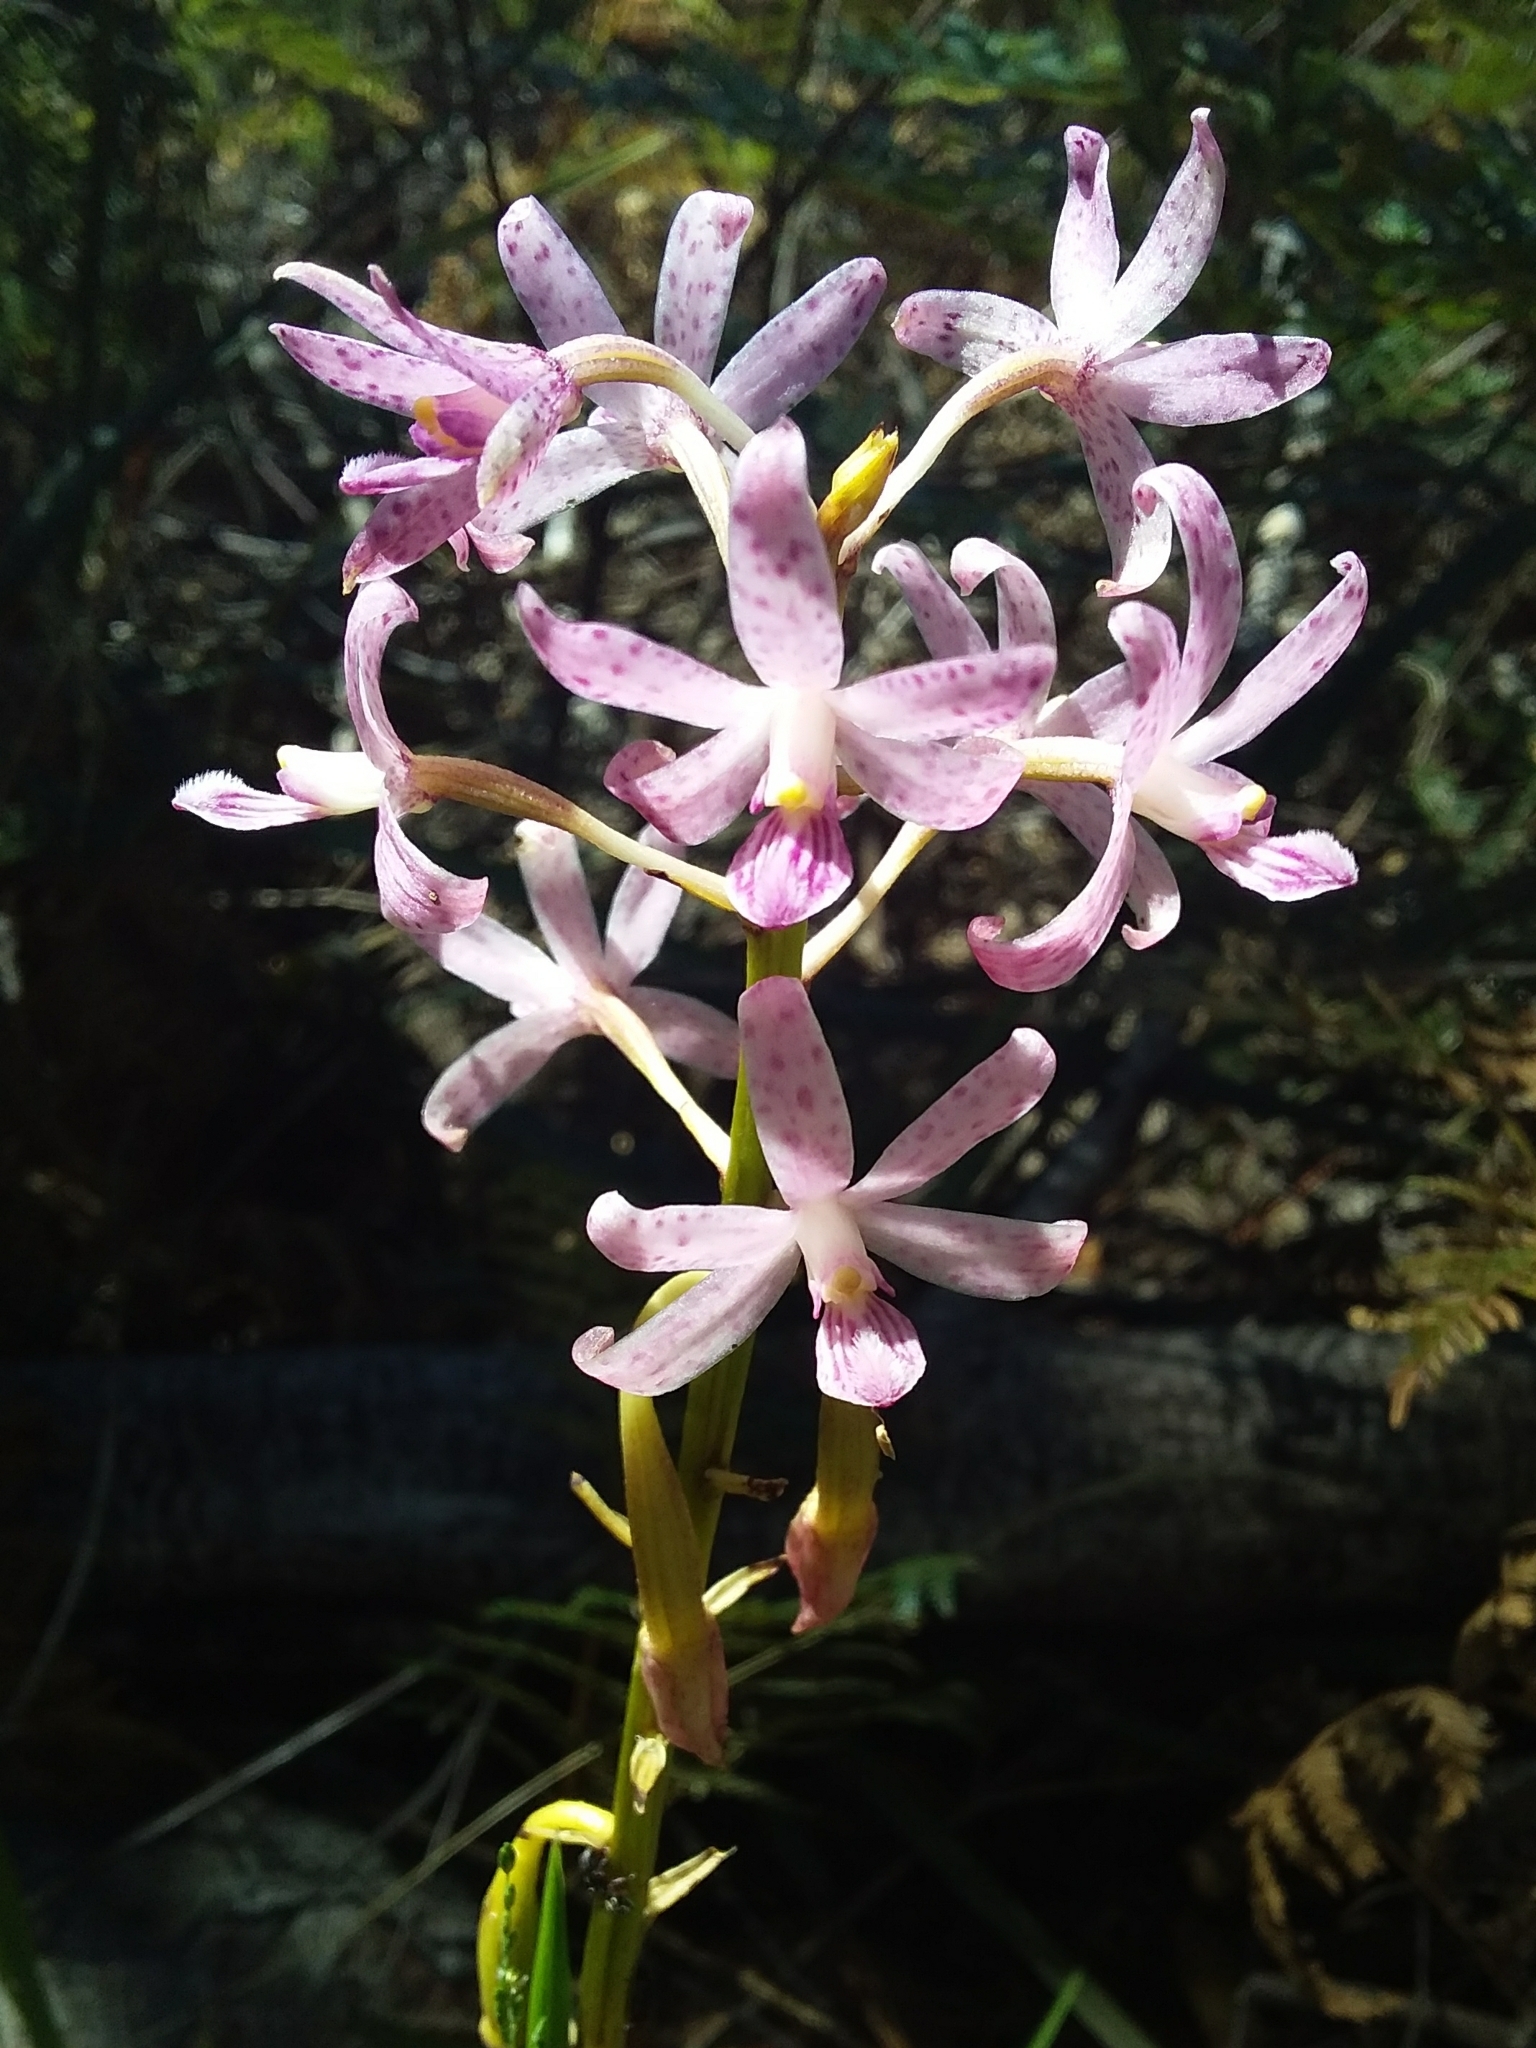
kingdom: Plantae
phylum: Tracheophyta
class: Liliopsida
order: Asparagales
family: Orchidaceae
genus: Dipodium
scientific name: Dipodium roseum
